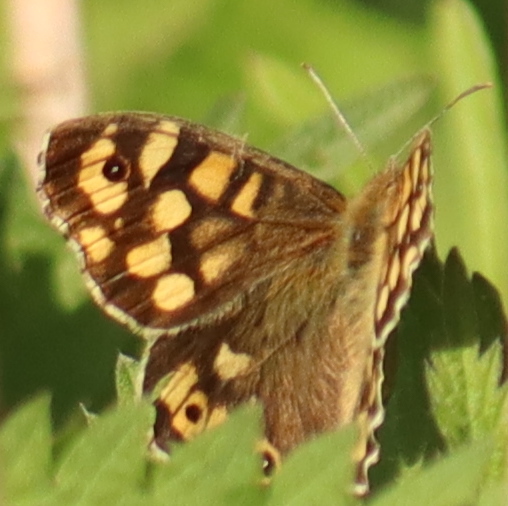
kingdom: Animalia
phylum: Arthropoda
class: Insecta
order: Lepidoptera
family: Nymphalidae
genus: Pararge
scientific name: Pararge aegeria
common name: Speckled wood
